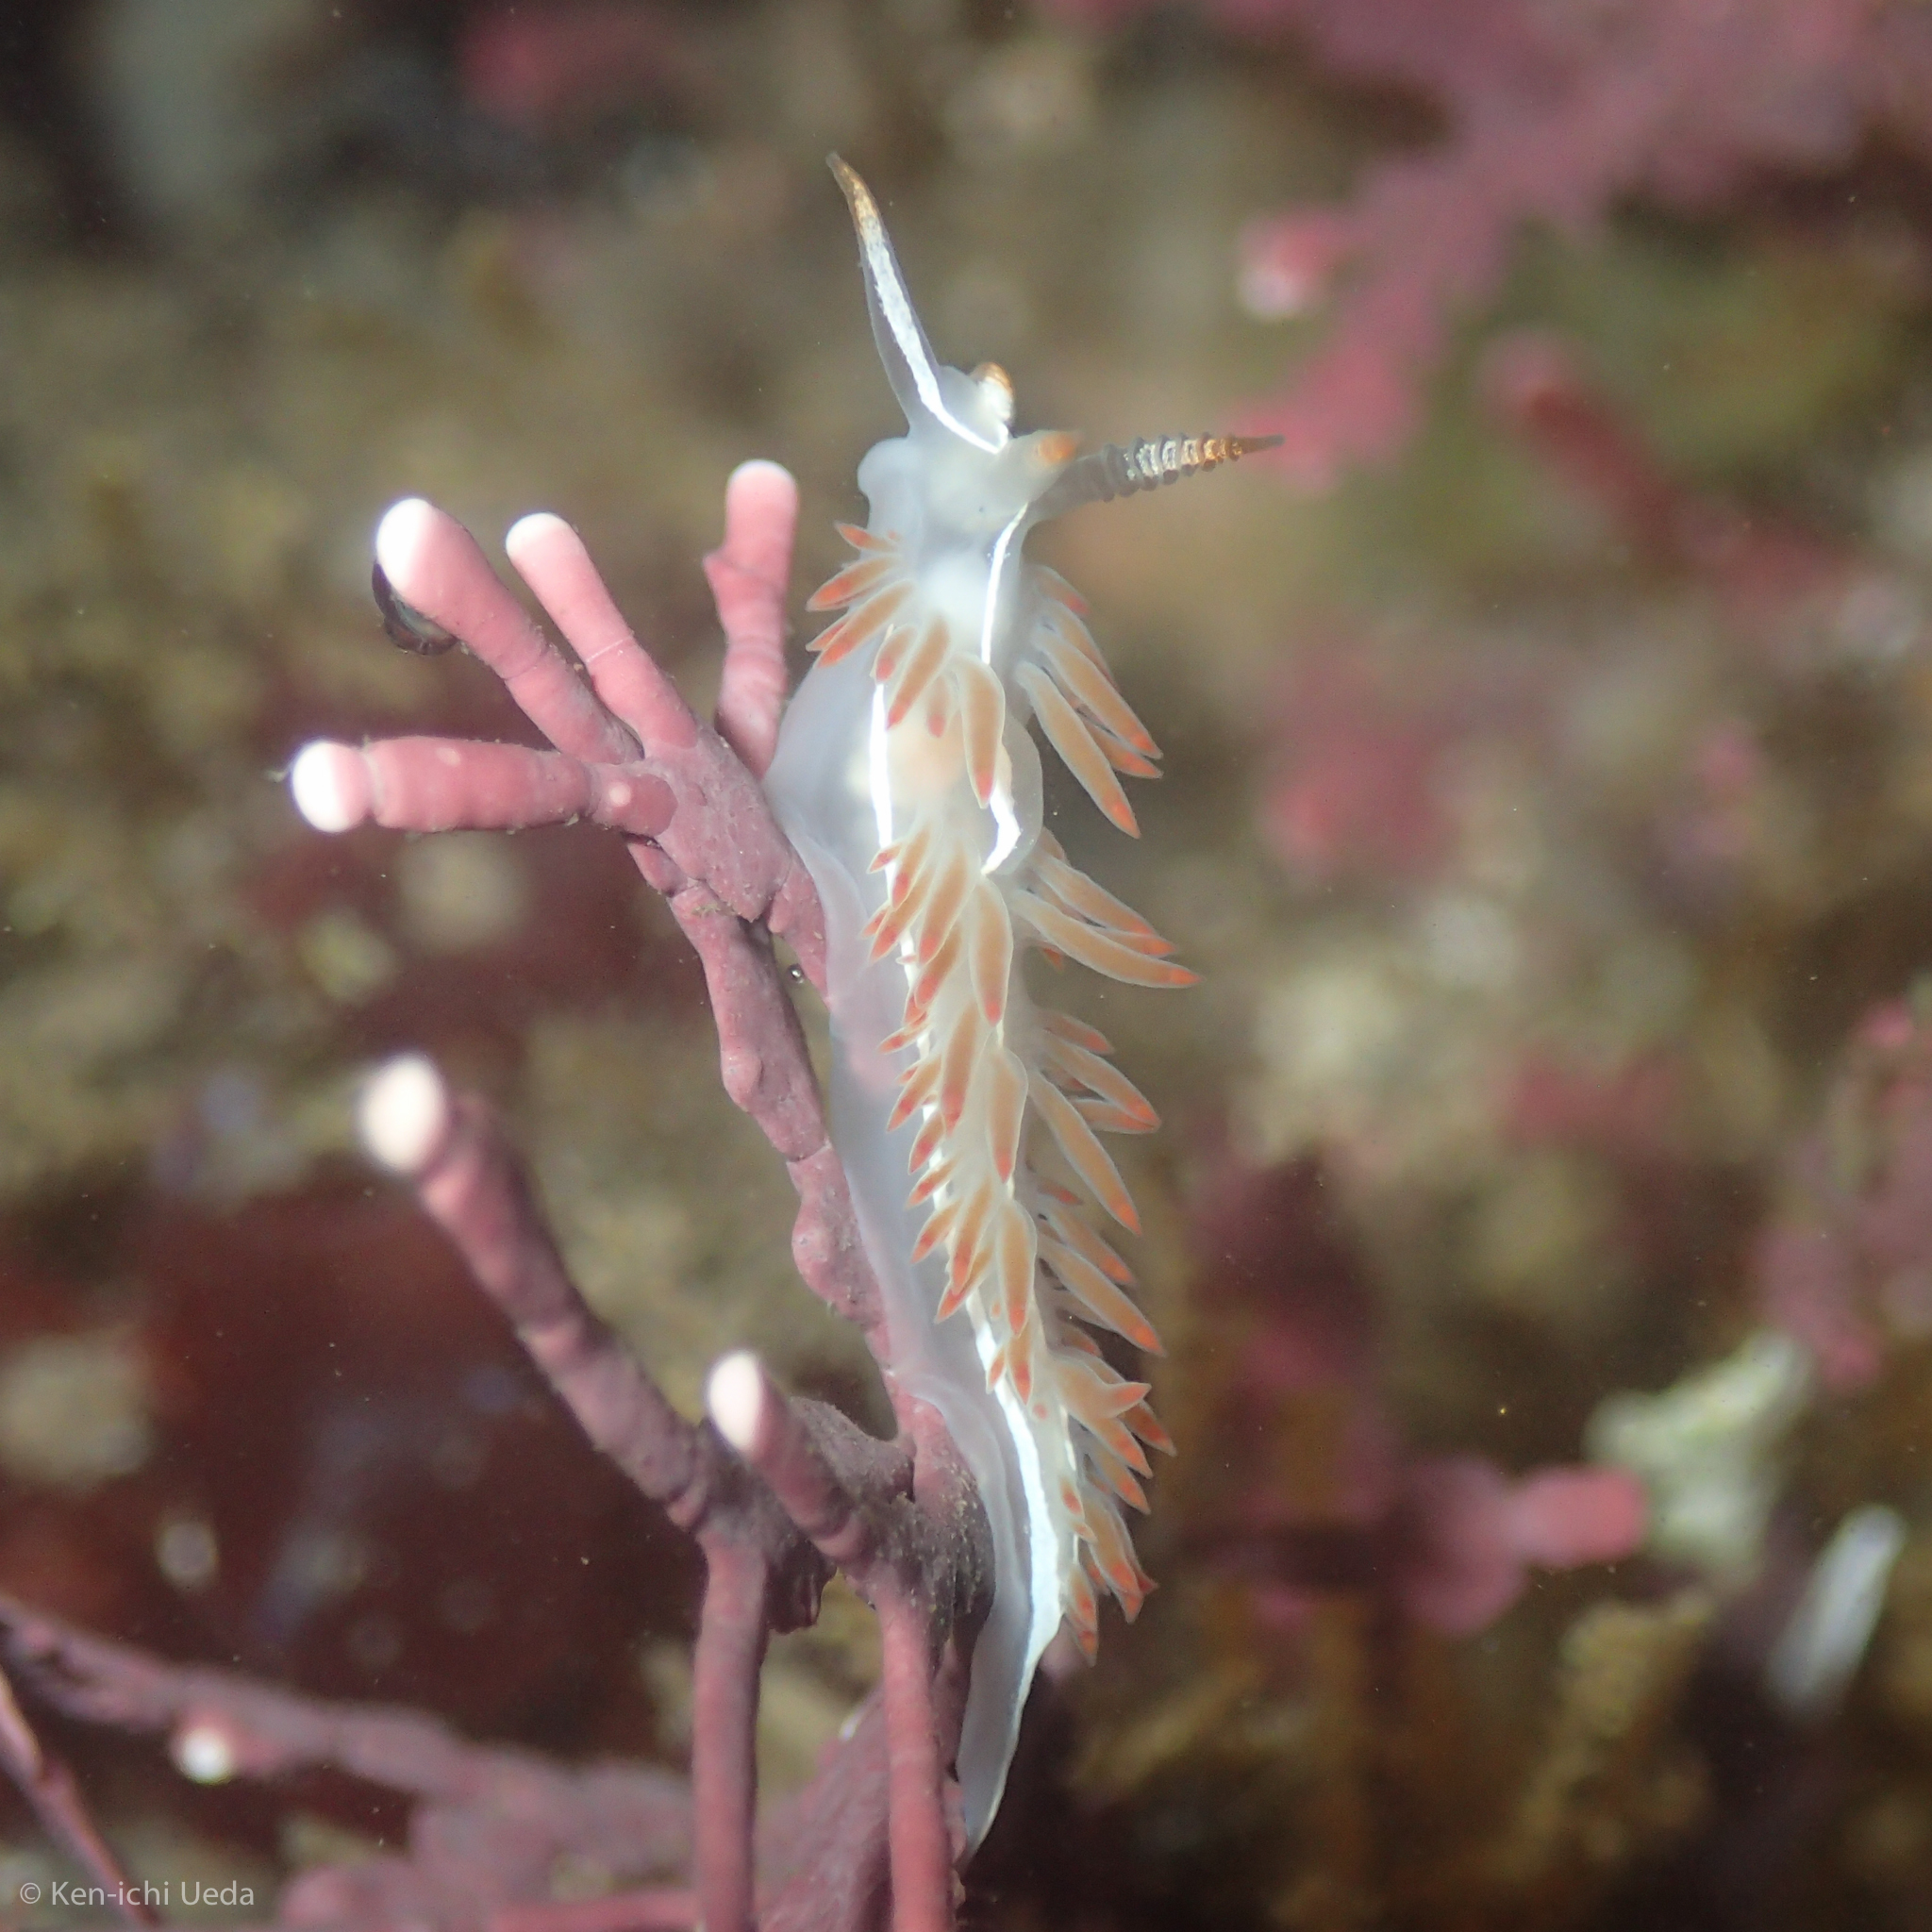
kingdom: Animalia
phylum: Mollusca
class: Gastropoda
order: Nudibranchia
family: Coryphellidae
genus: Coryphella
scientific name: Coryphella trilineata
